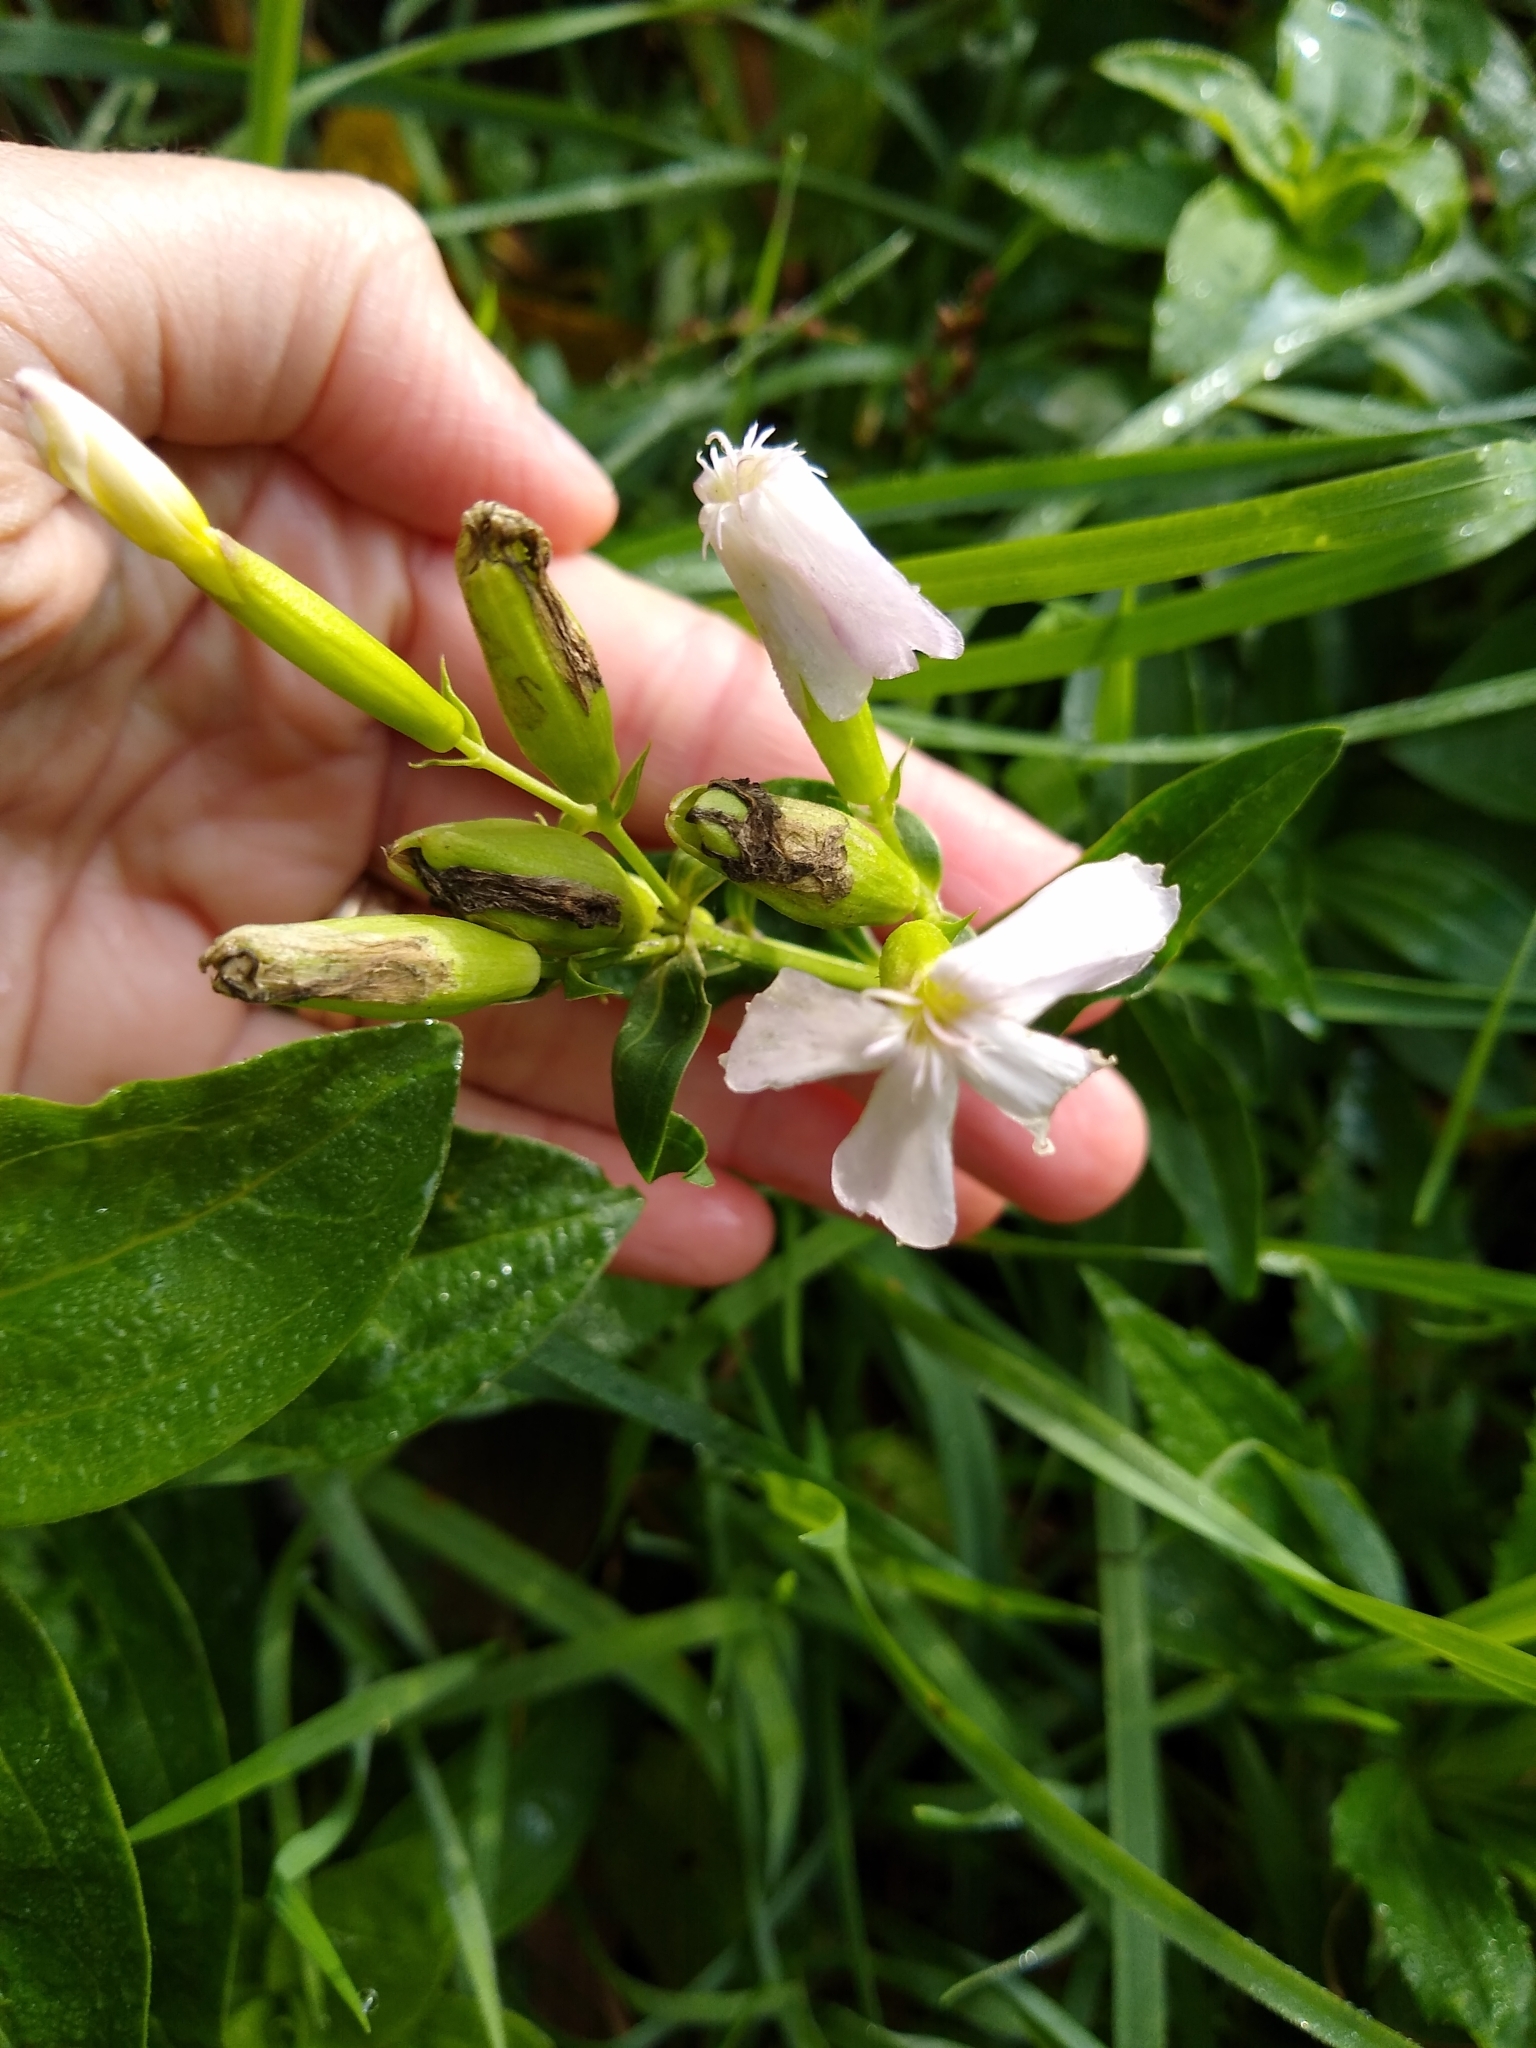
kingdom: Plantae
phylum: Tracheophyta
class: Magnoliopsida
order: Caryophyllales
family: Caryophyllaceae
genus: Saponaria
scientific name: Saponaria officinalis
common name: Soapwort
